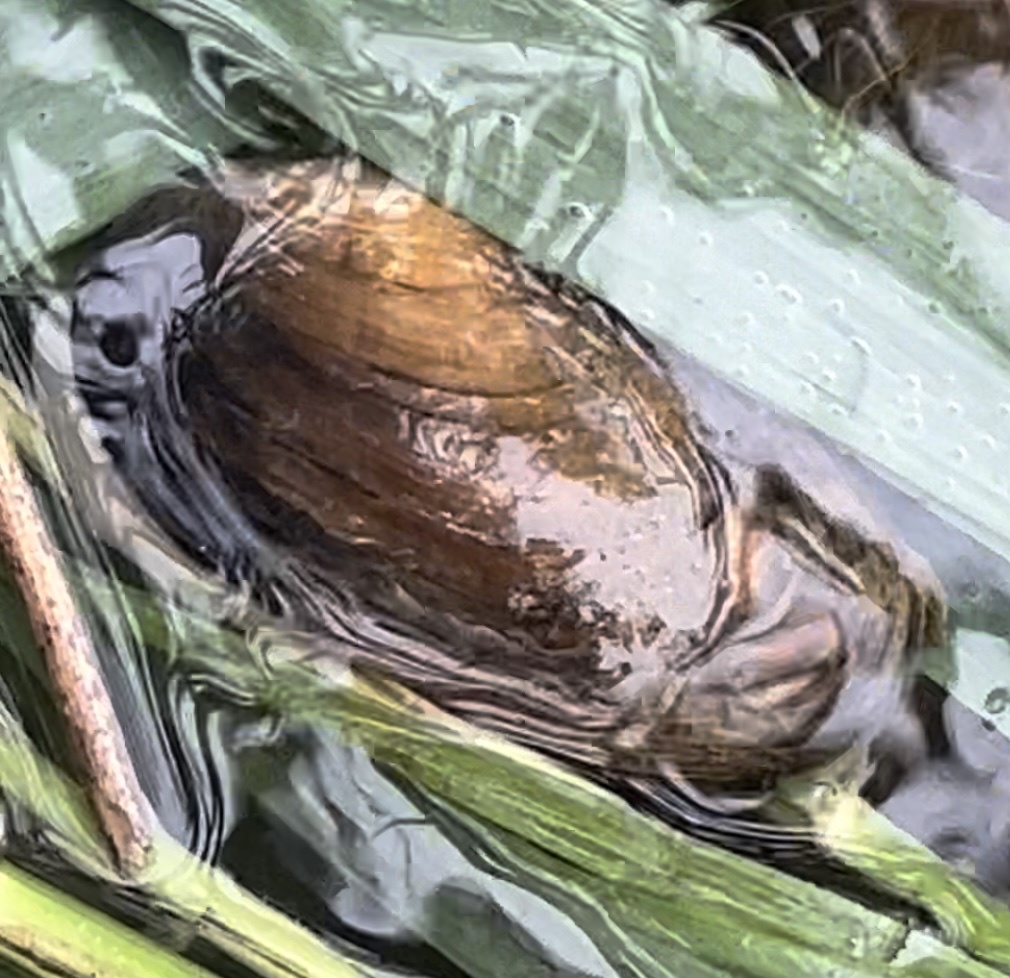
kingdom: Animalia
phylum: Mollusca
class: Bivalvia
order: Unionida
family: Unionidae
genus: Unio
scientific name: Unio elongatulus
